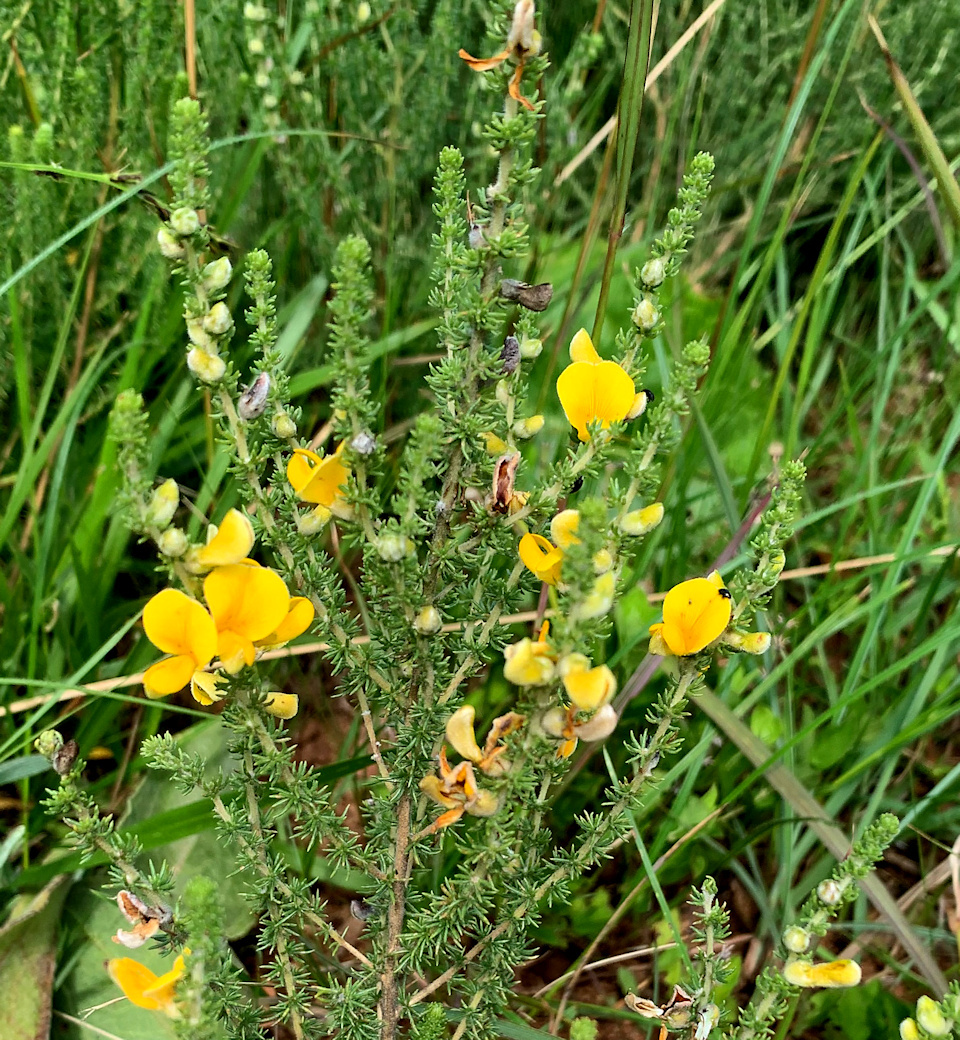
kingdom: Plantae
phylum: Tracheophyta
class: Magnoliopsida
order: Fabales
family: Fabaceae
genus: Aspalathus
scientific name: Aspalathus chortophila
